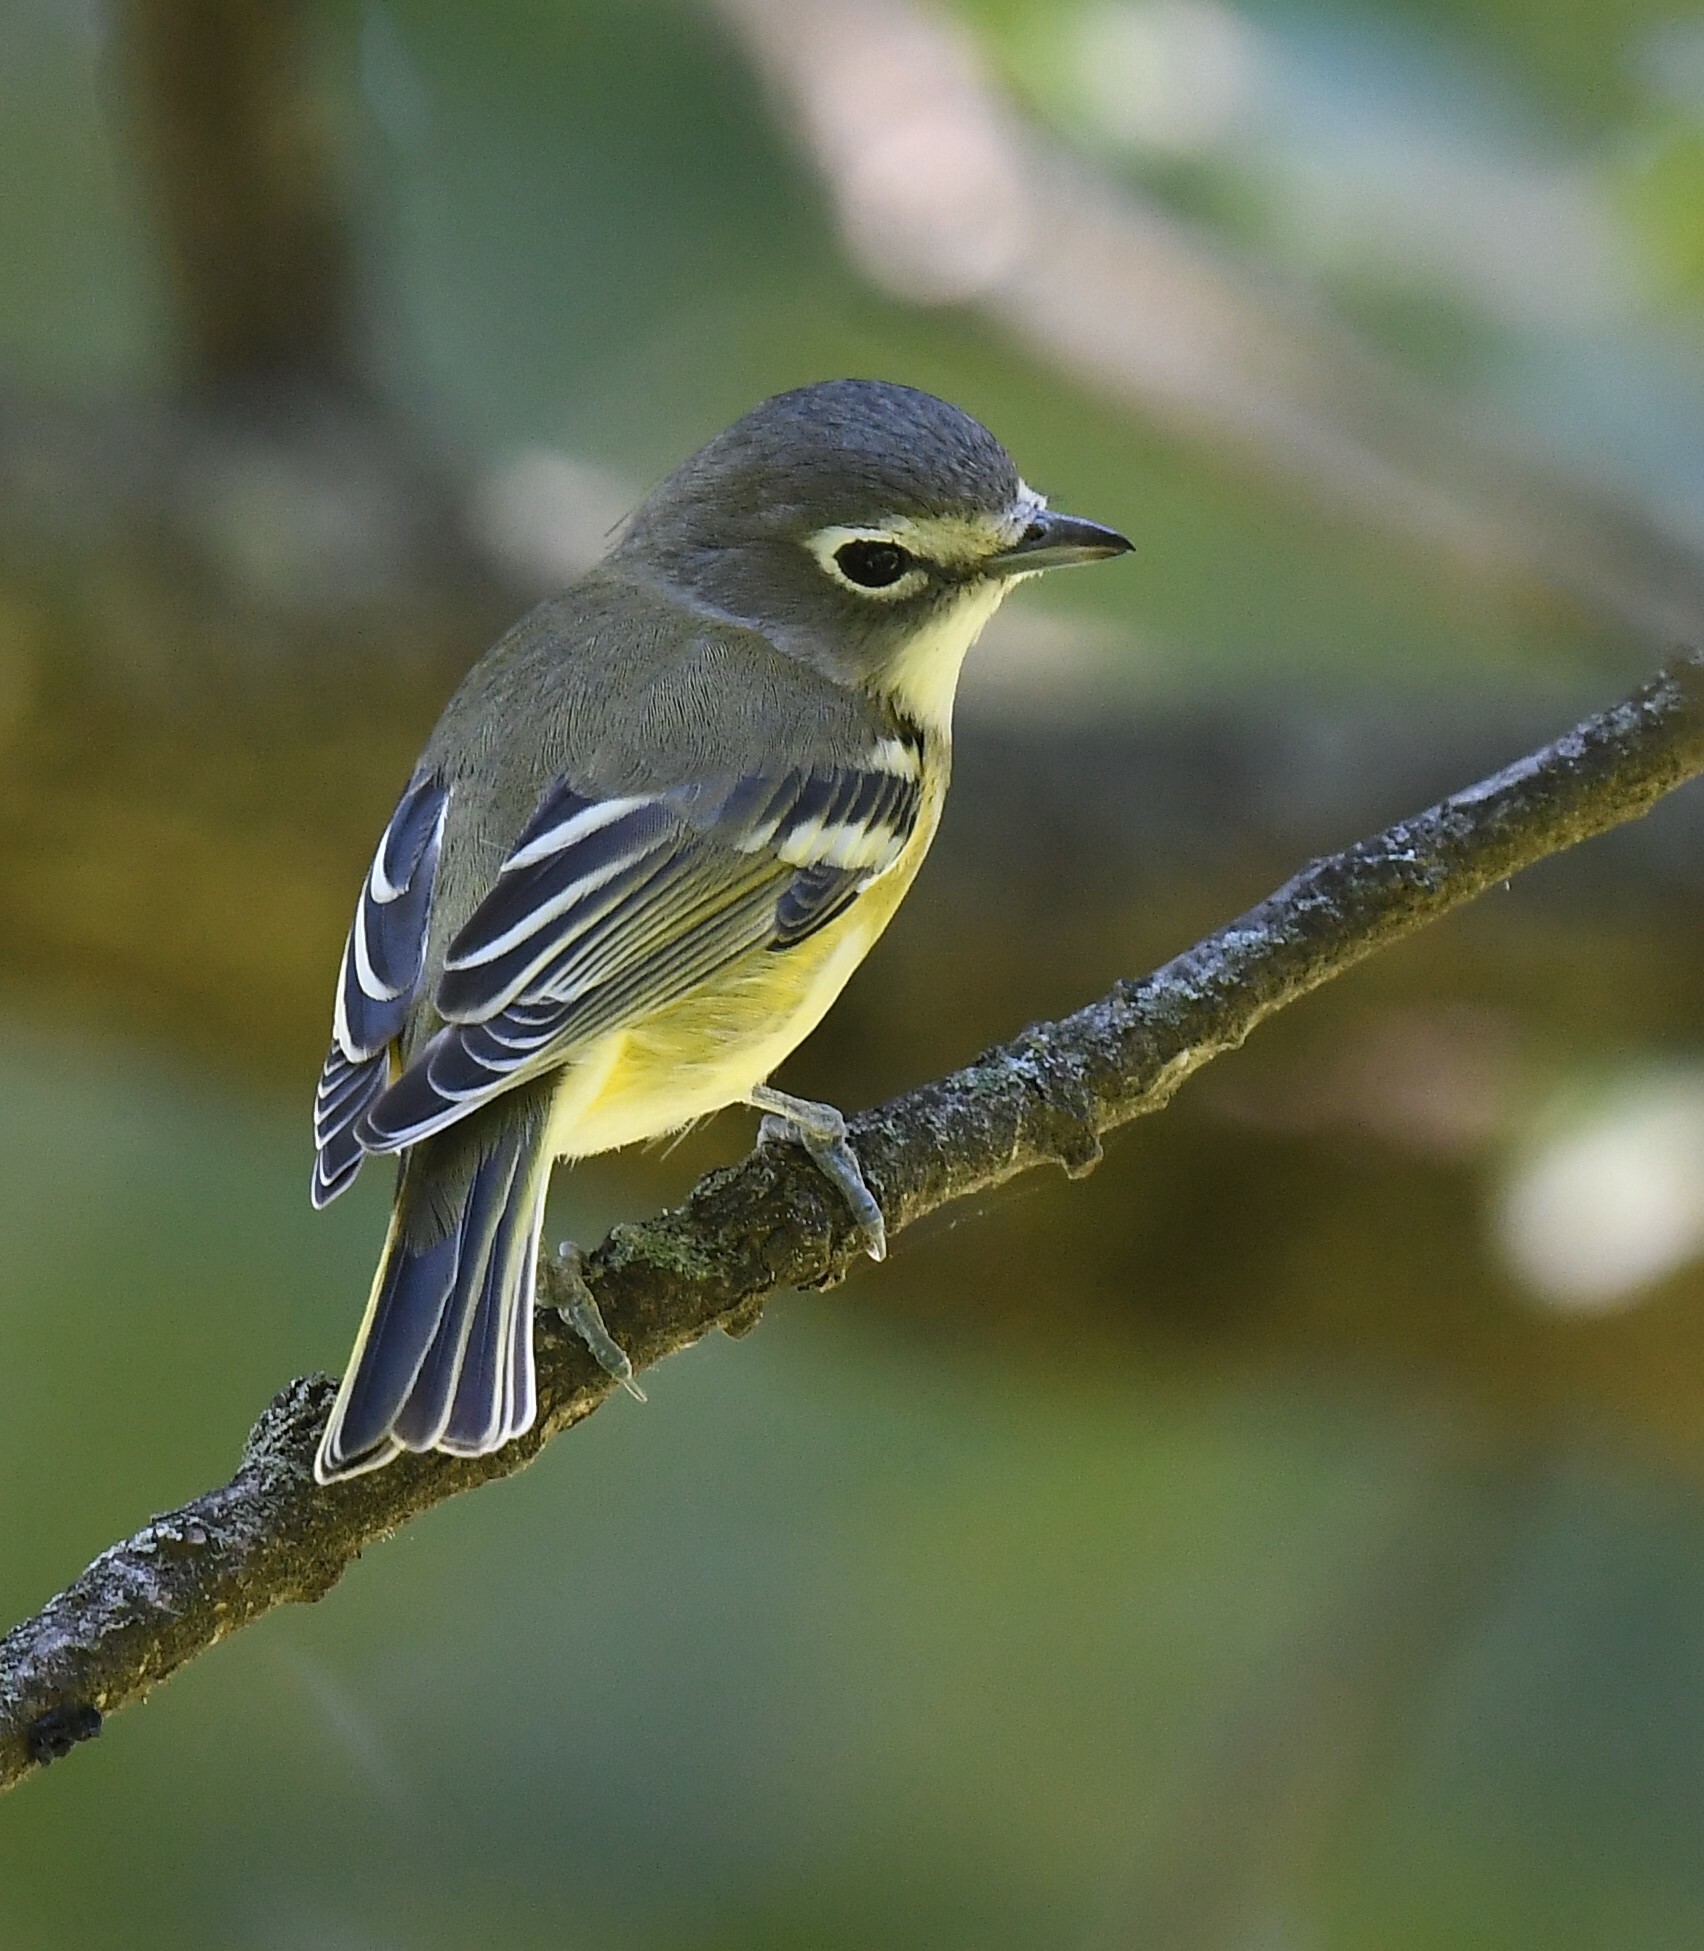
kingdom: Animalia
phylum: Chordata
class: Aves
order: Passeriformes
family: Vireonidae
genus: Vireo
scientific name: Vireo solitarius
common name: Blue-headed vireo
